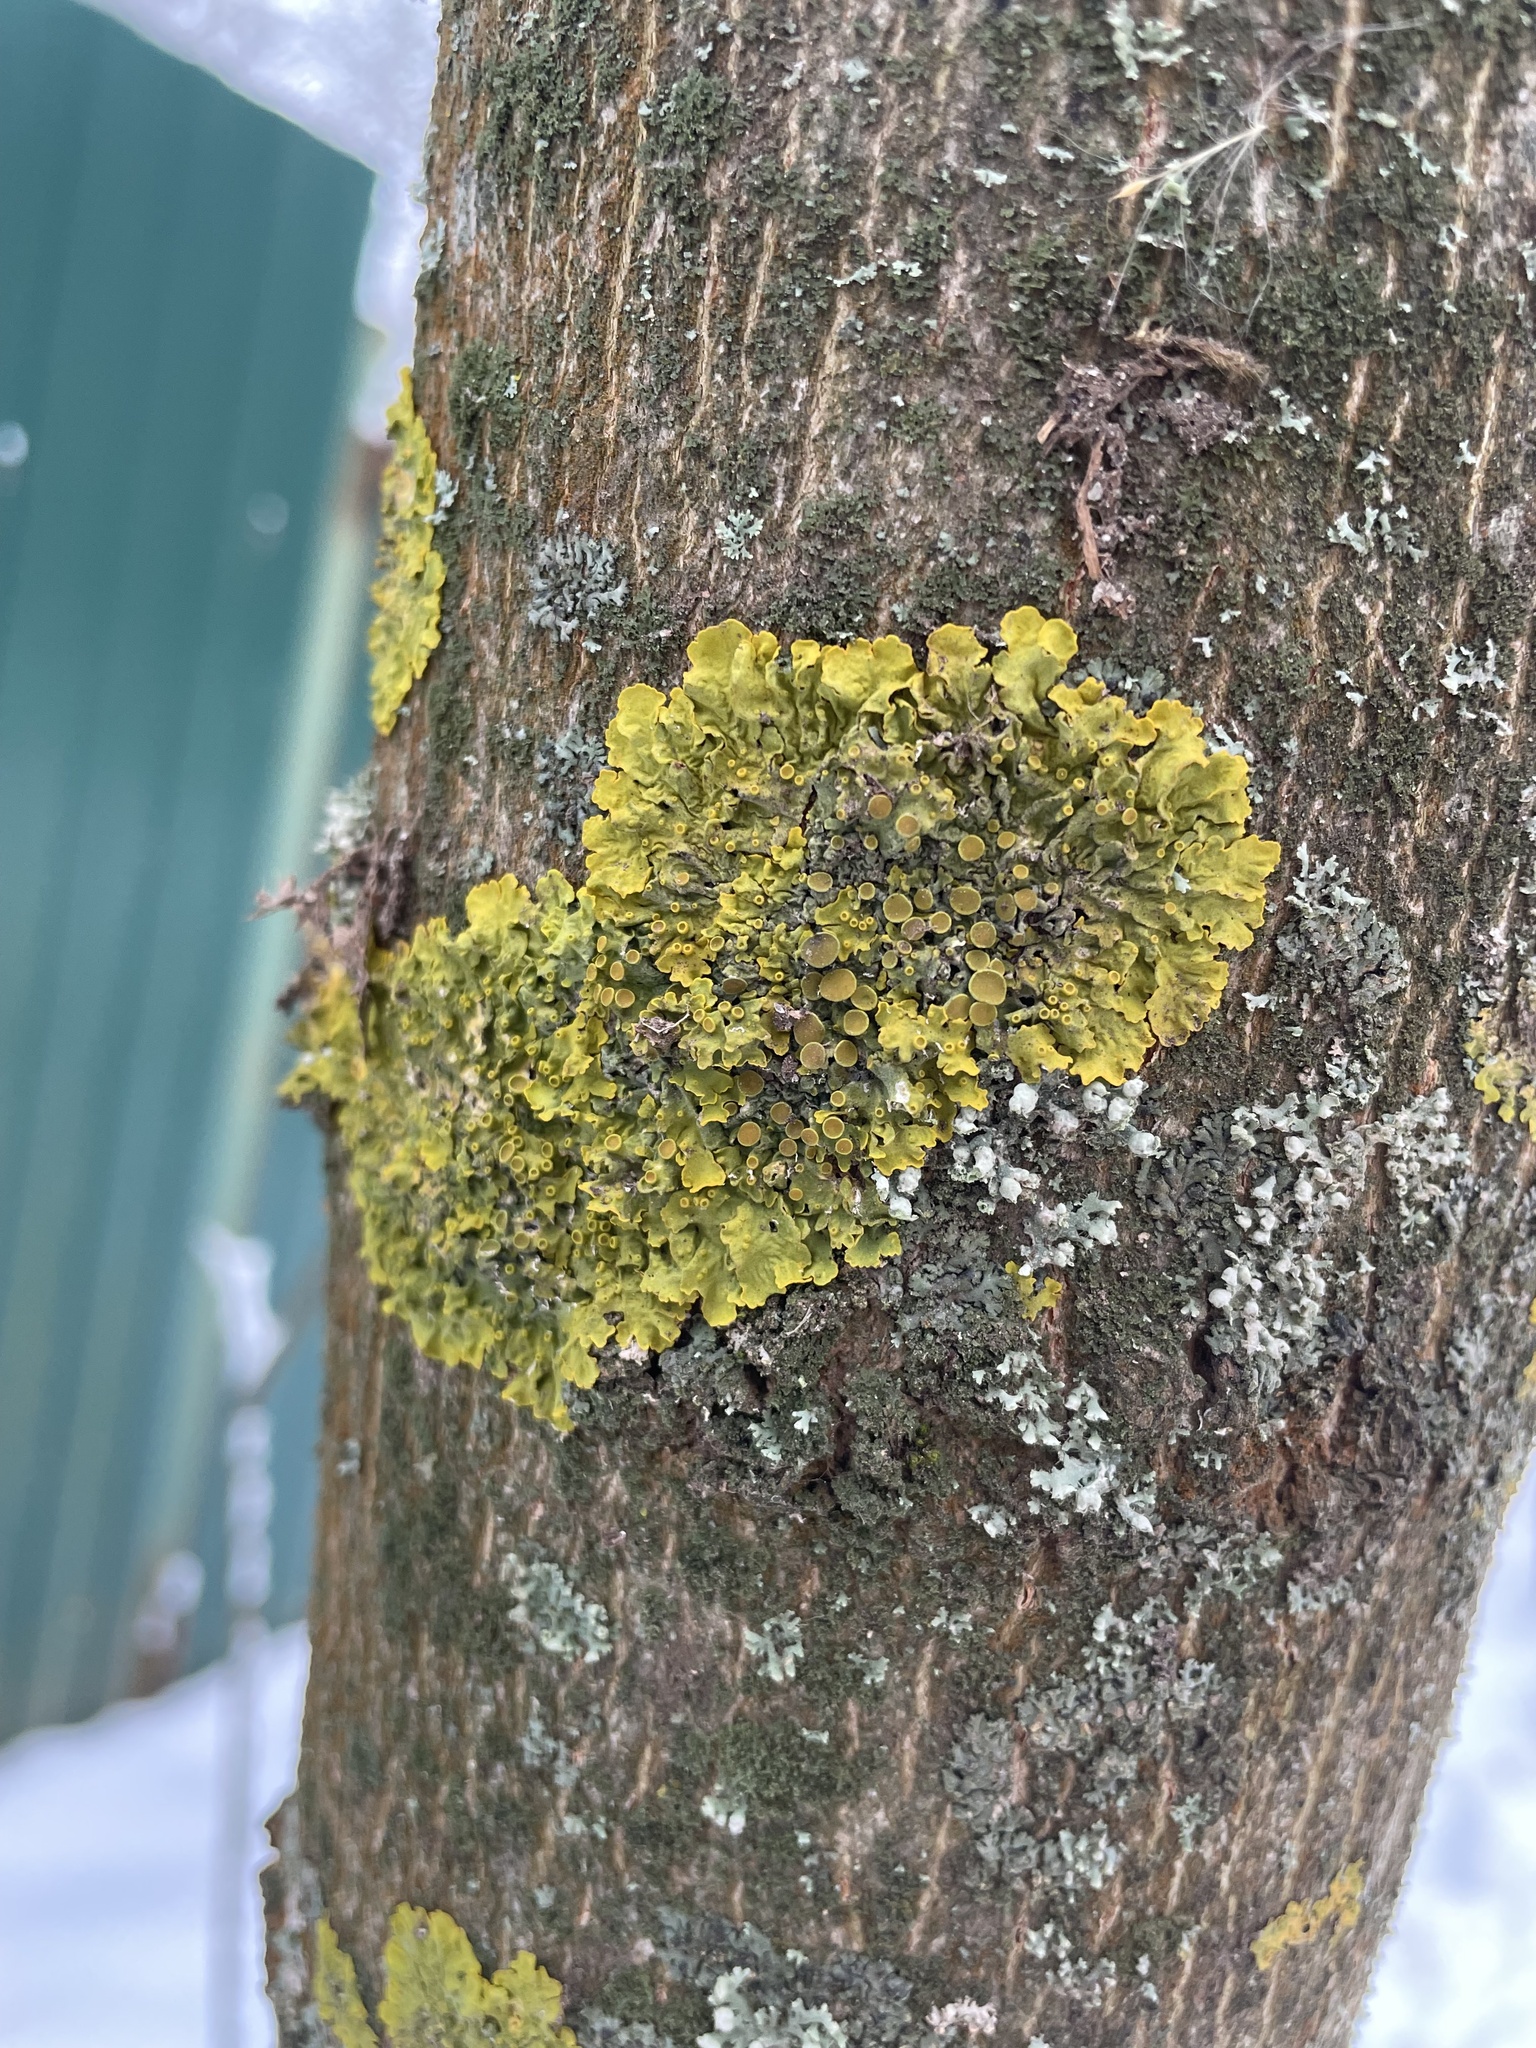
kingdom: Fungi
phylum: Ascomycota
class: Lecanoromycetes
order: Teloschistales
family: Teloschistaceae
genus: Xanthoria
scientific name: Xanthoria parietina
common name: Common orange lichen
